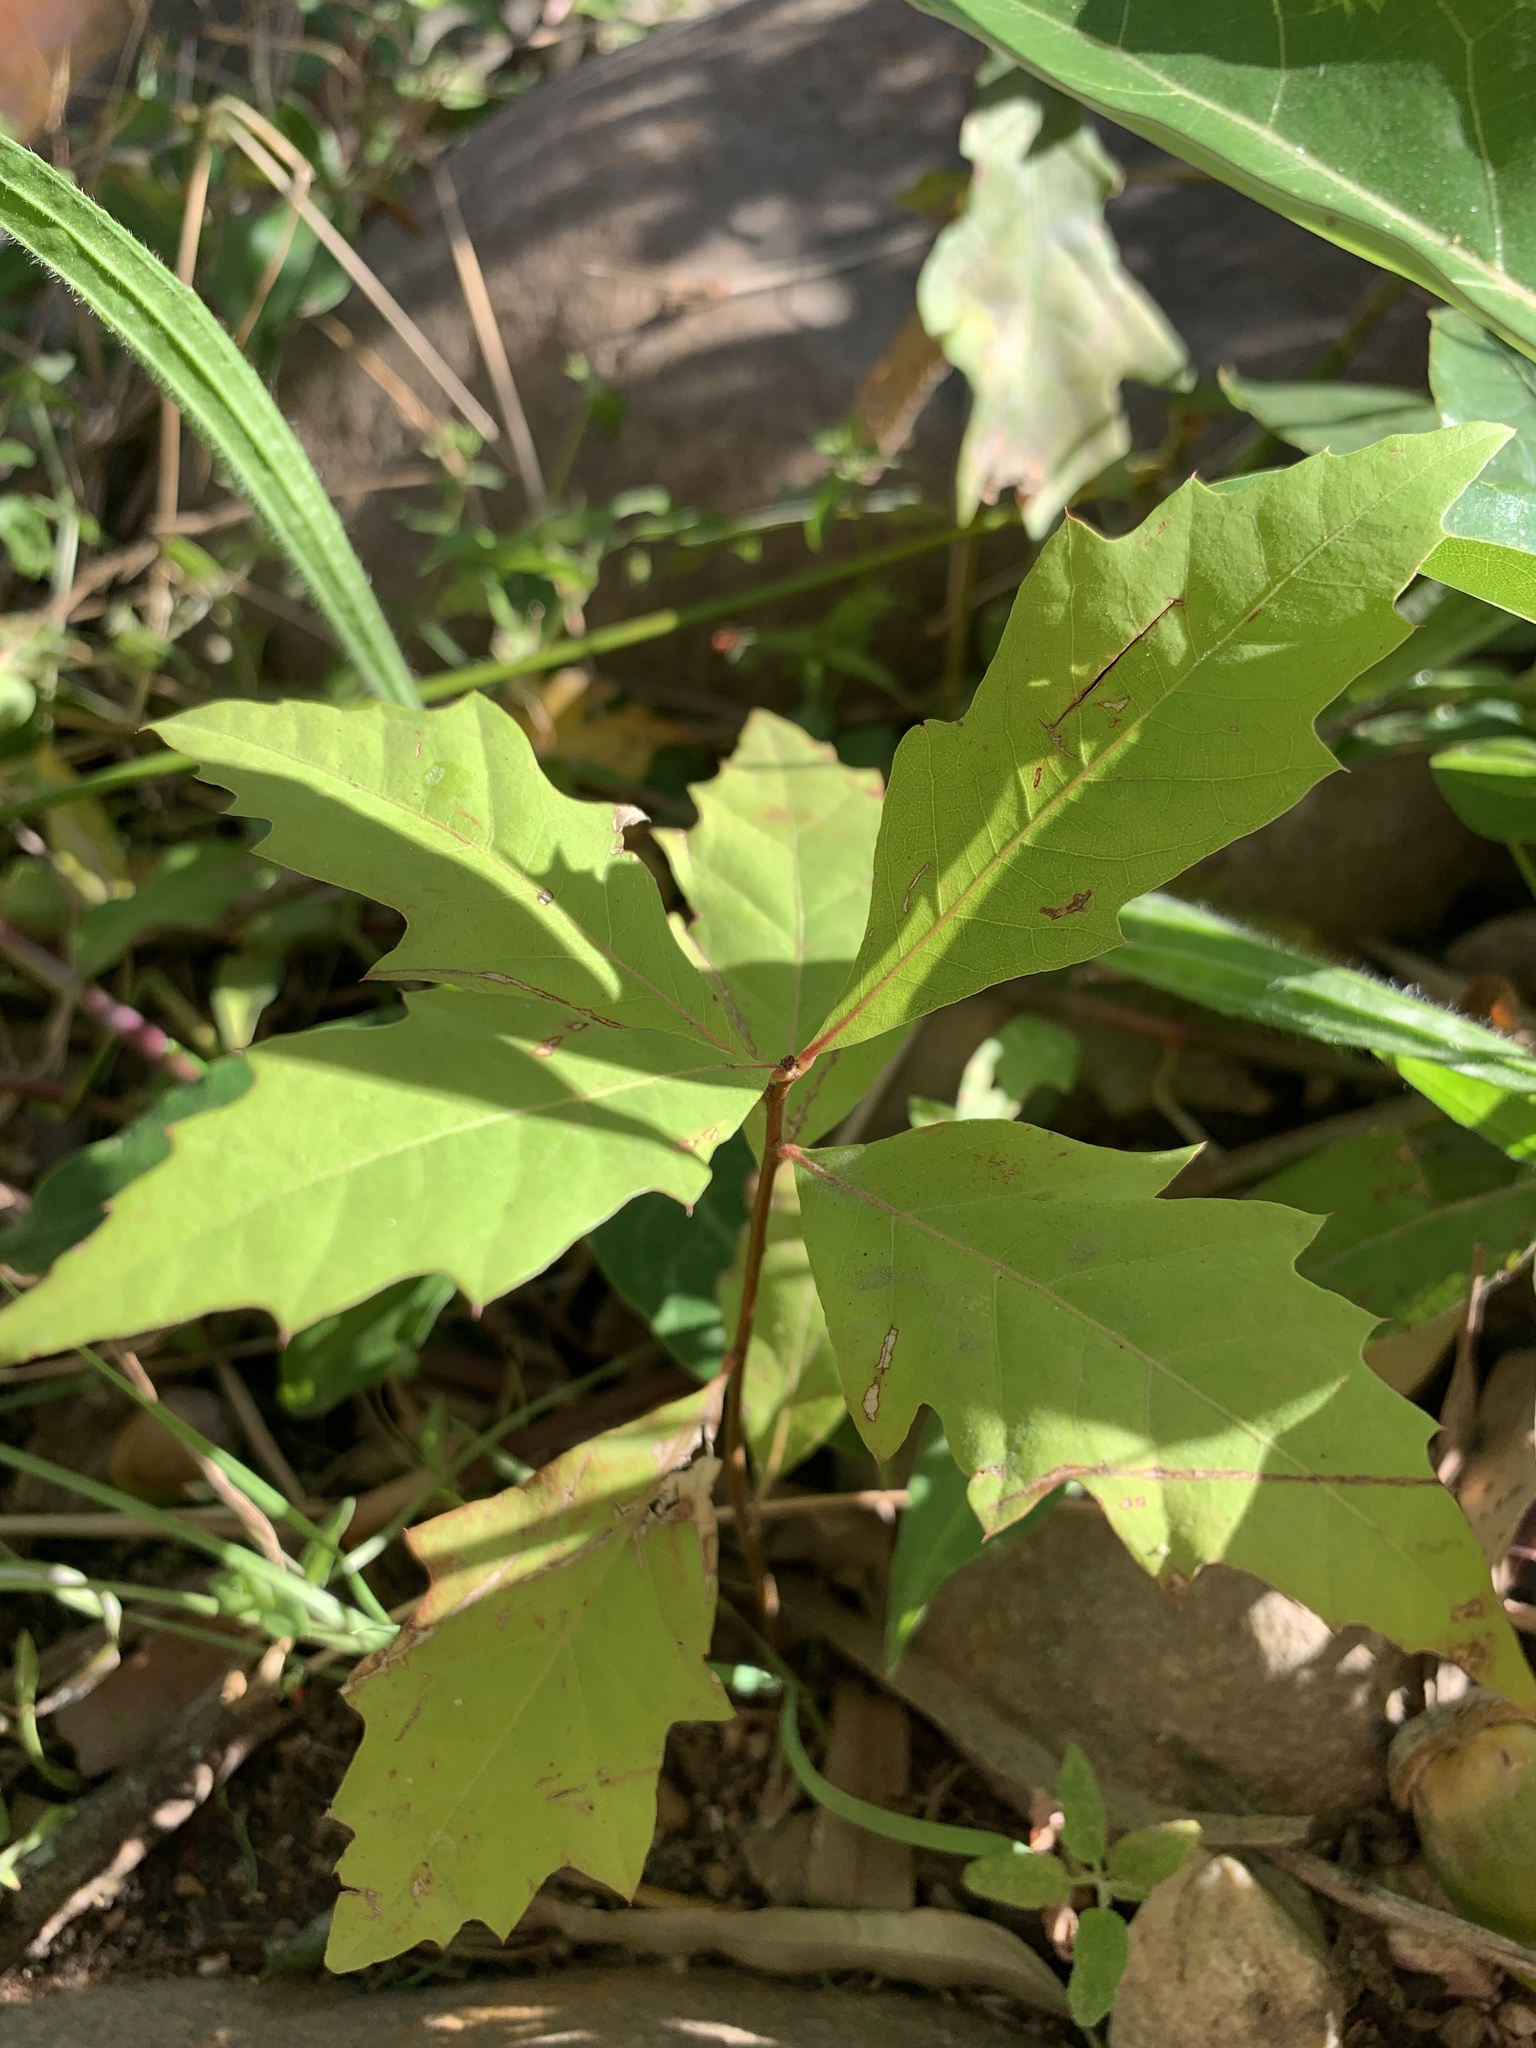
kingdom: Plantae
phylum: Tracheophyta
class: Magnoliopsida
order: Fagales
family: Fagaceae
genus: Quercus
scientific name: Quercus palustris
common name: Pin oak
